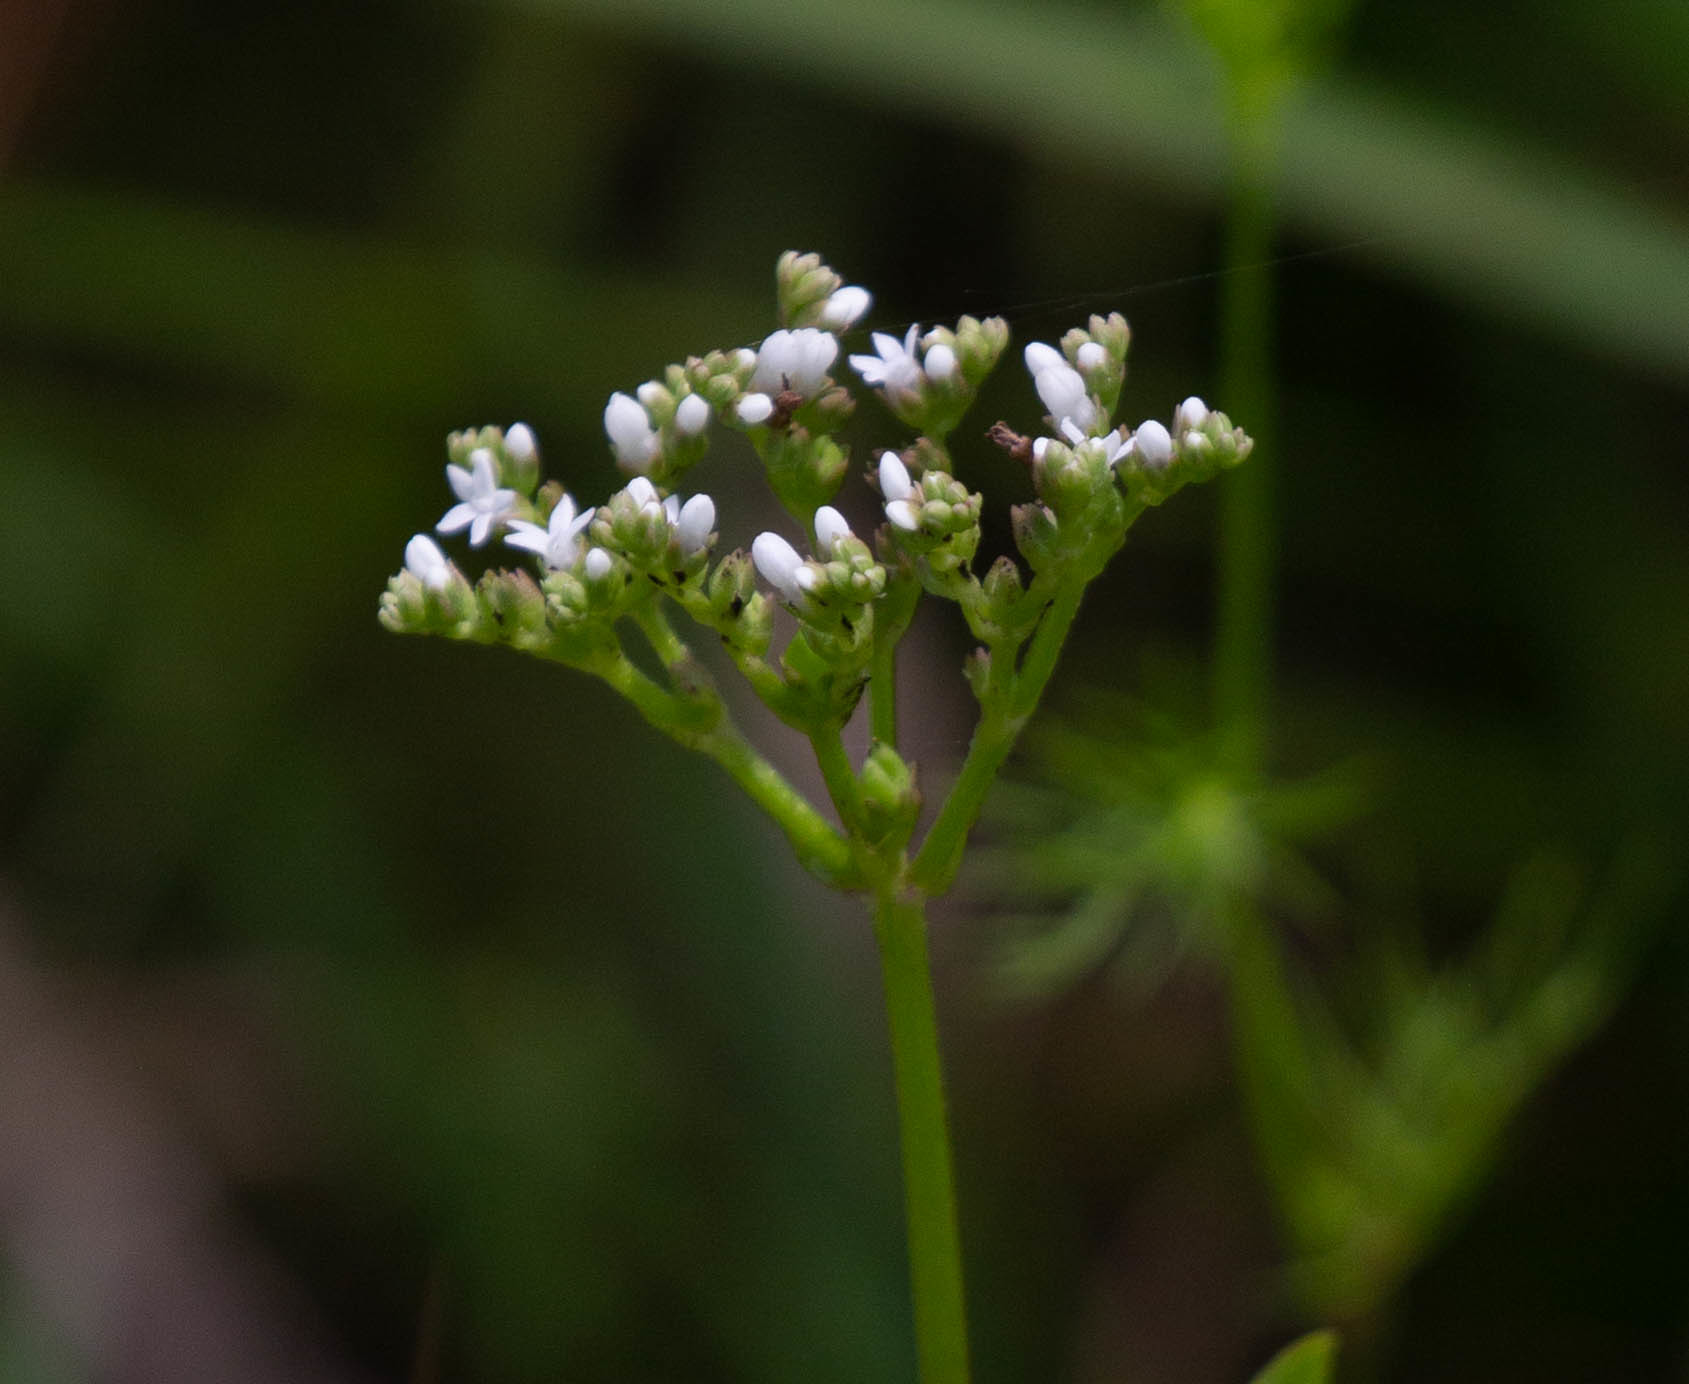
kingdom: Plantae
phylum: Tracheophyta
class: Magnoliopsida
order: Gentianales
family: Loganiaceae
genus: Mitreola
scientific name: Mitreola petiolata
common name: Lax hornpod
